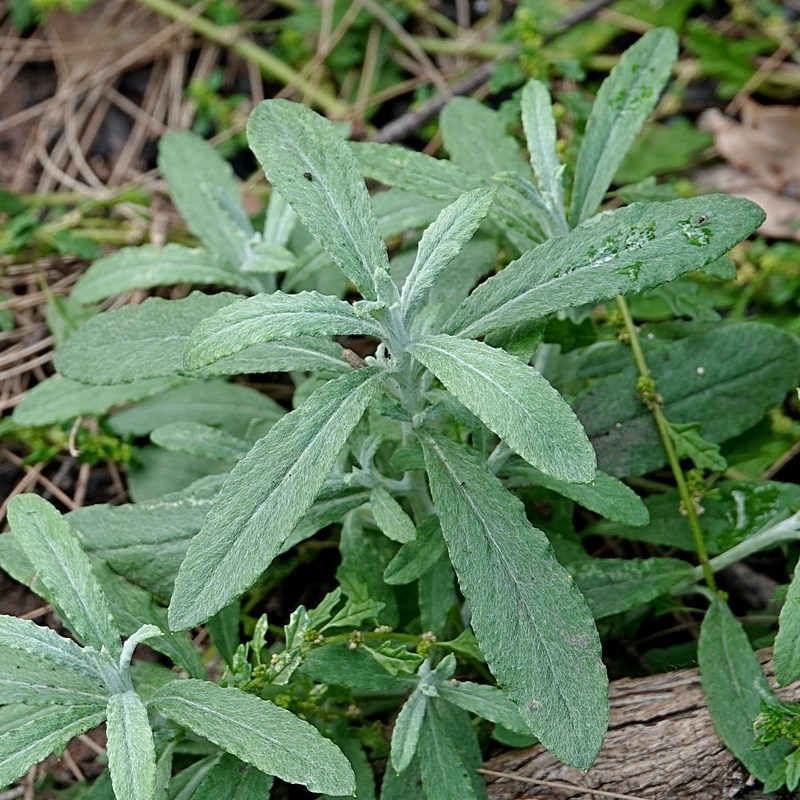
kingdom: Plantae
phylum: Tracheophyta
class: Magnoliopsida
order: Asterales
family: Asteraceae
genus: Ozothamnus
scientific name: Ozothamnus argophyllus
